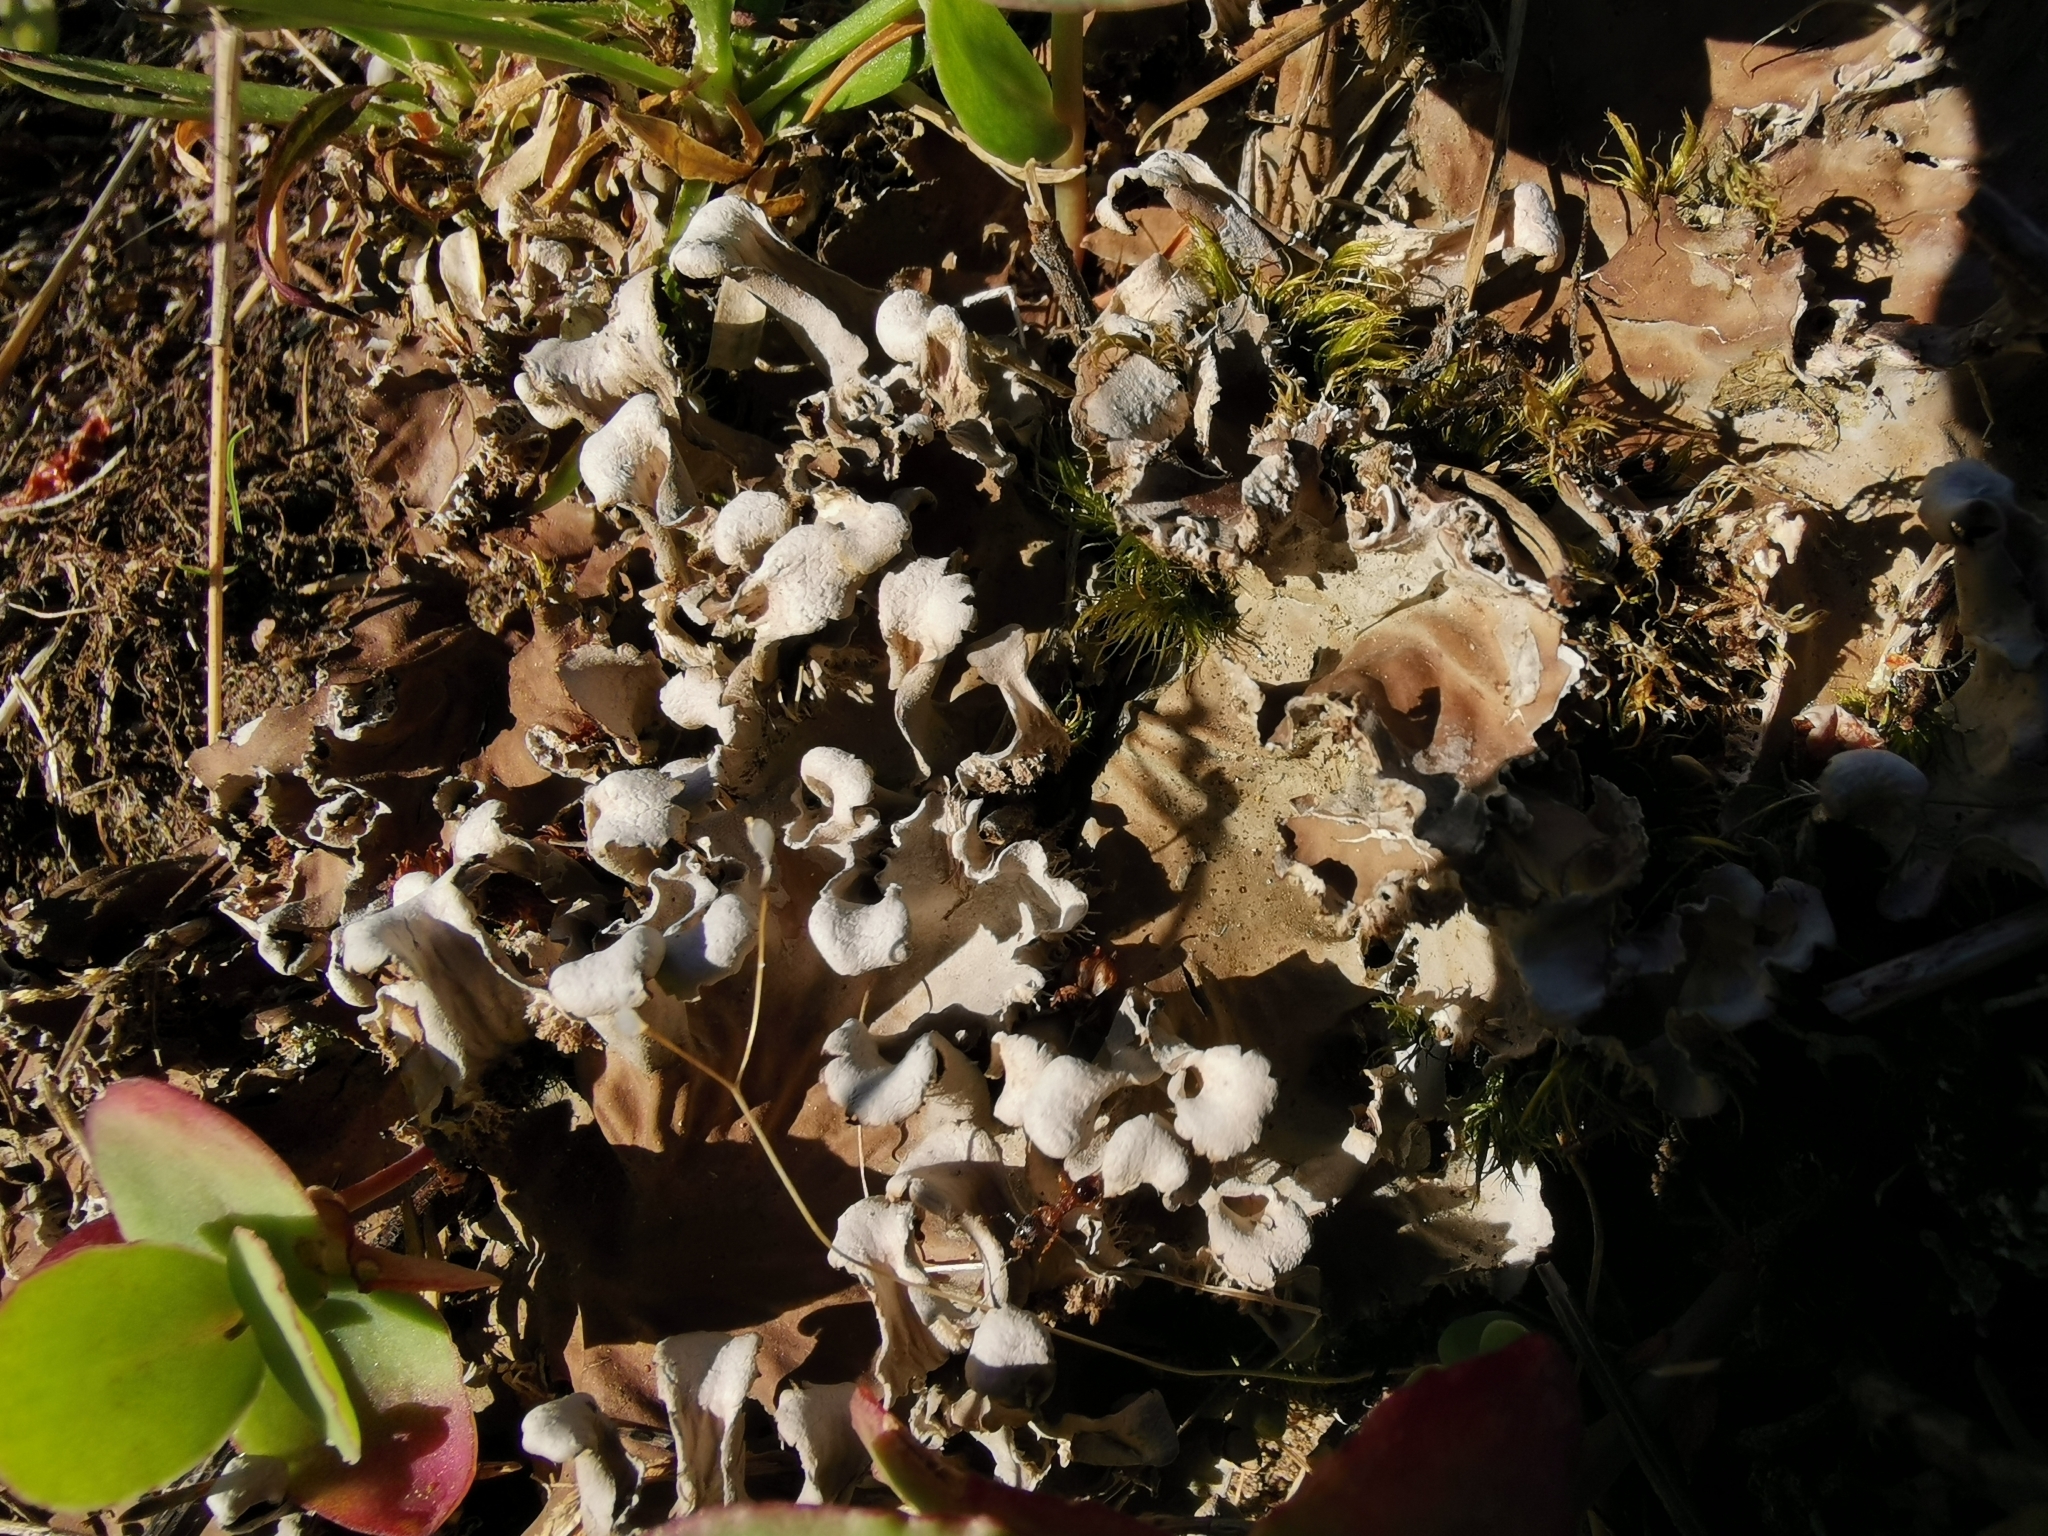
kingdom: Fungi
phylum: Ascomycota
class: Lecanoromycetes
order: Peltigerales
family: Peltigeraceae
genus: Peltigera
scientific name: Peltigera rufescens
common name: Field dog lichen
